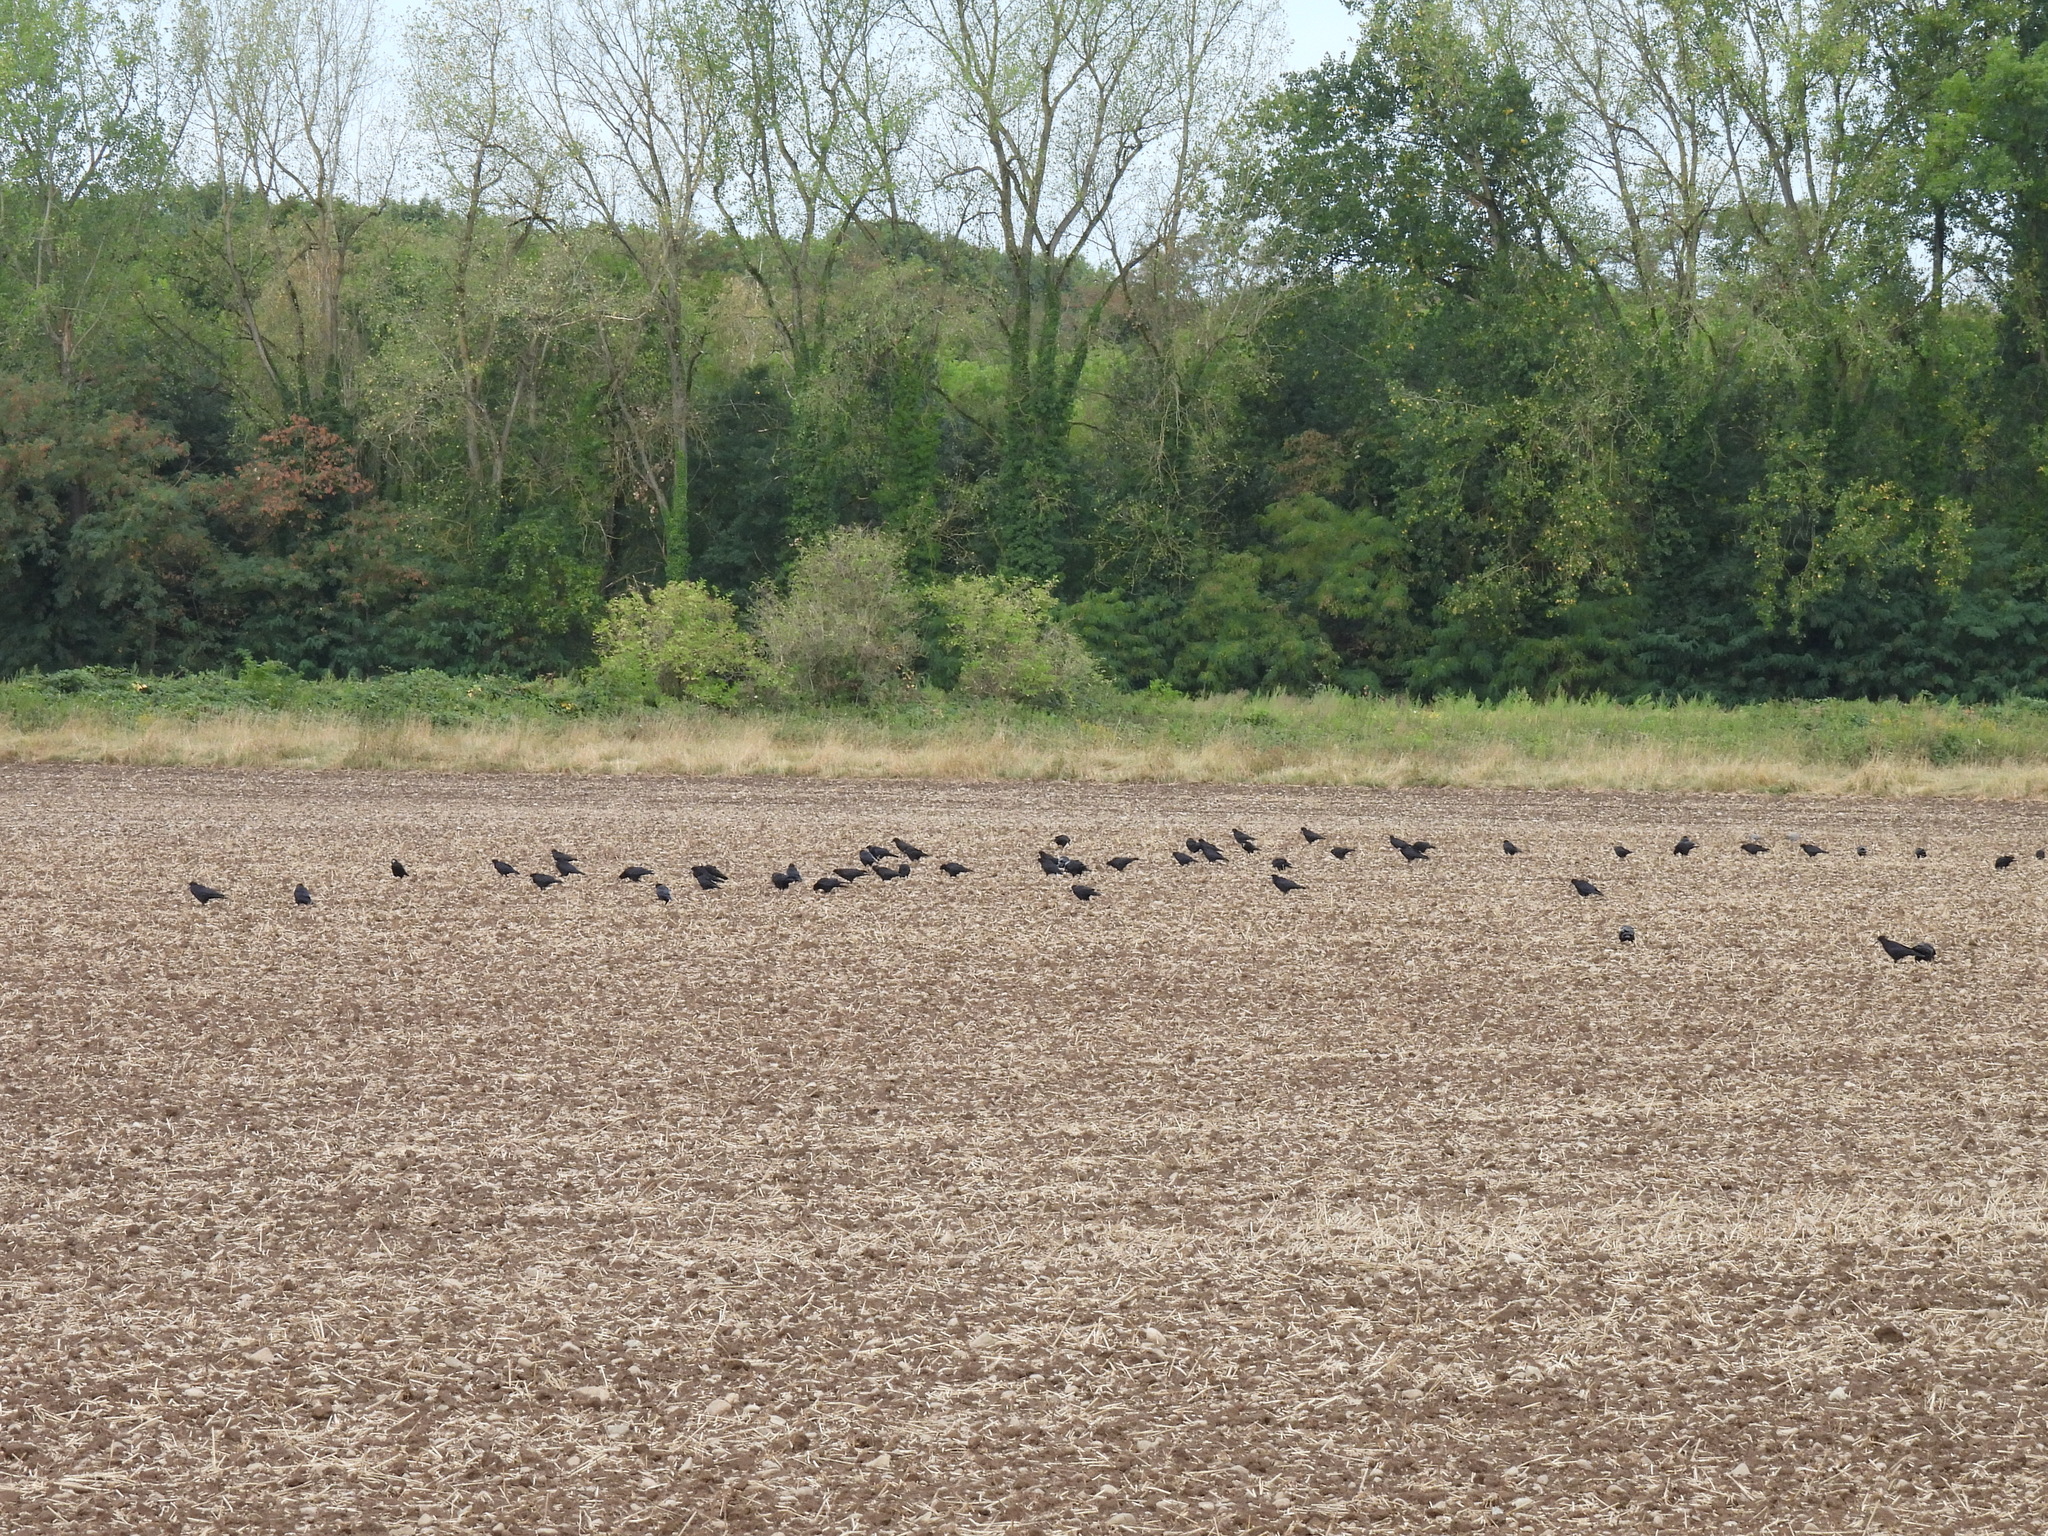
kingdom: Animalia
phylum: Chordata
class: Aves
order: Passeriformes
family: Corvidae
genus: Corvus
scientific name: Corvus frugilegus
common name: Rook
